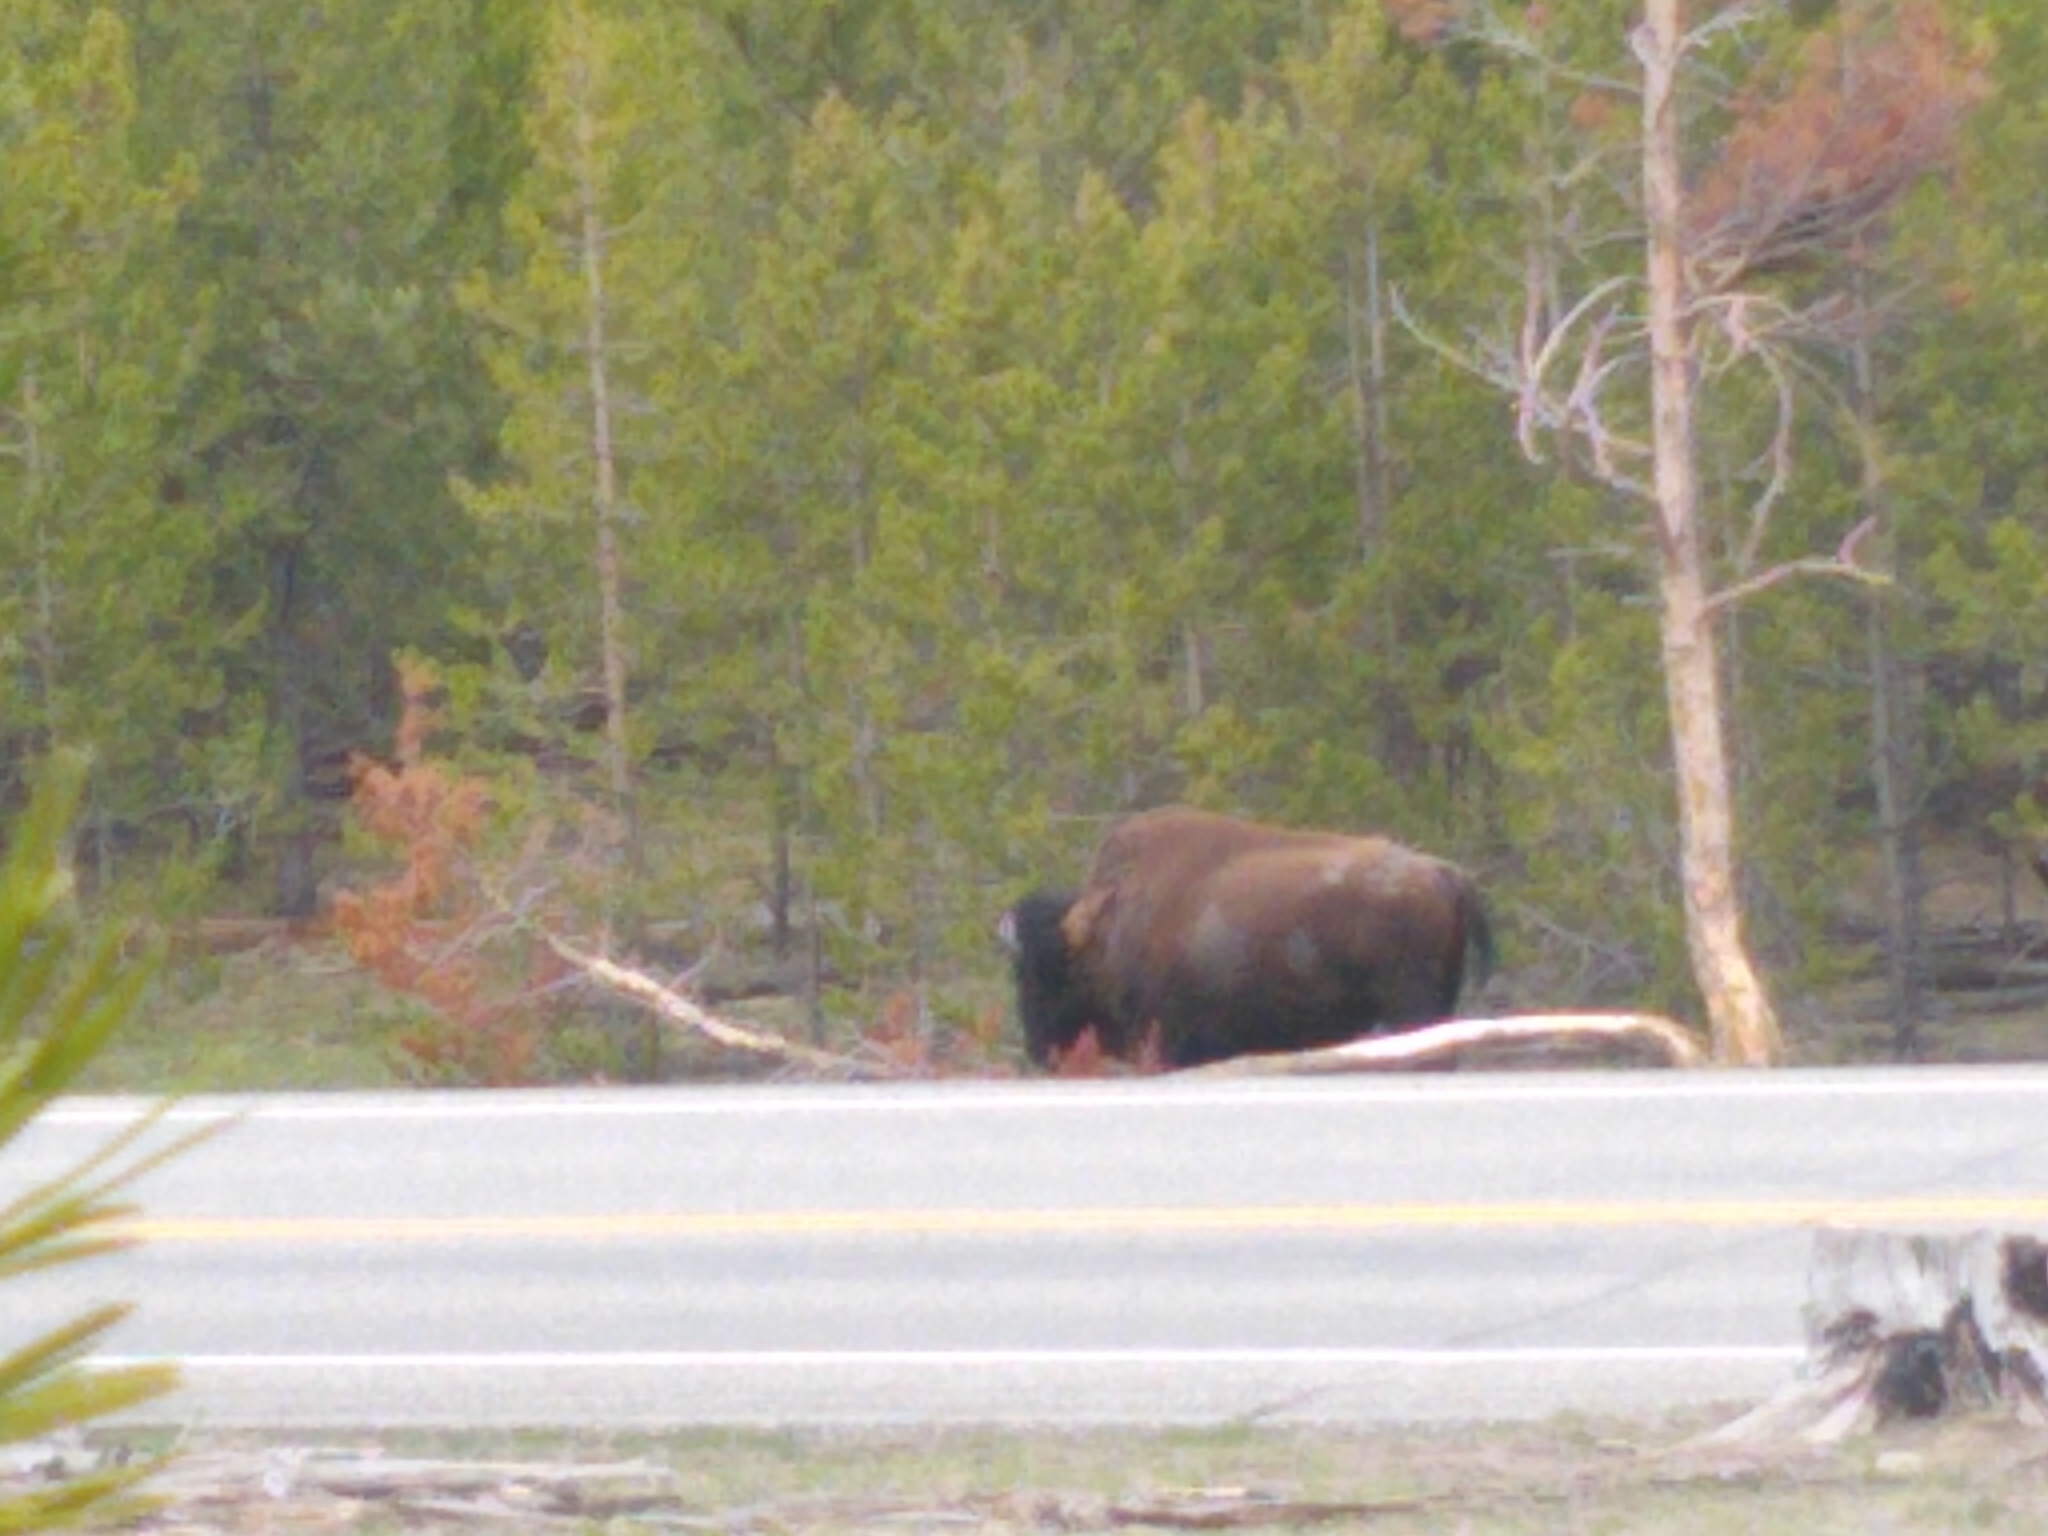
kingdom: Animalia
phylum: Chordata
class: Mammalia
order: Artiodactyla
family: Bovidae
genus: Bison
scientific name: Bison bison
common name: American bison
